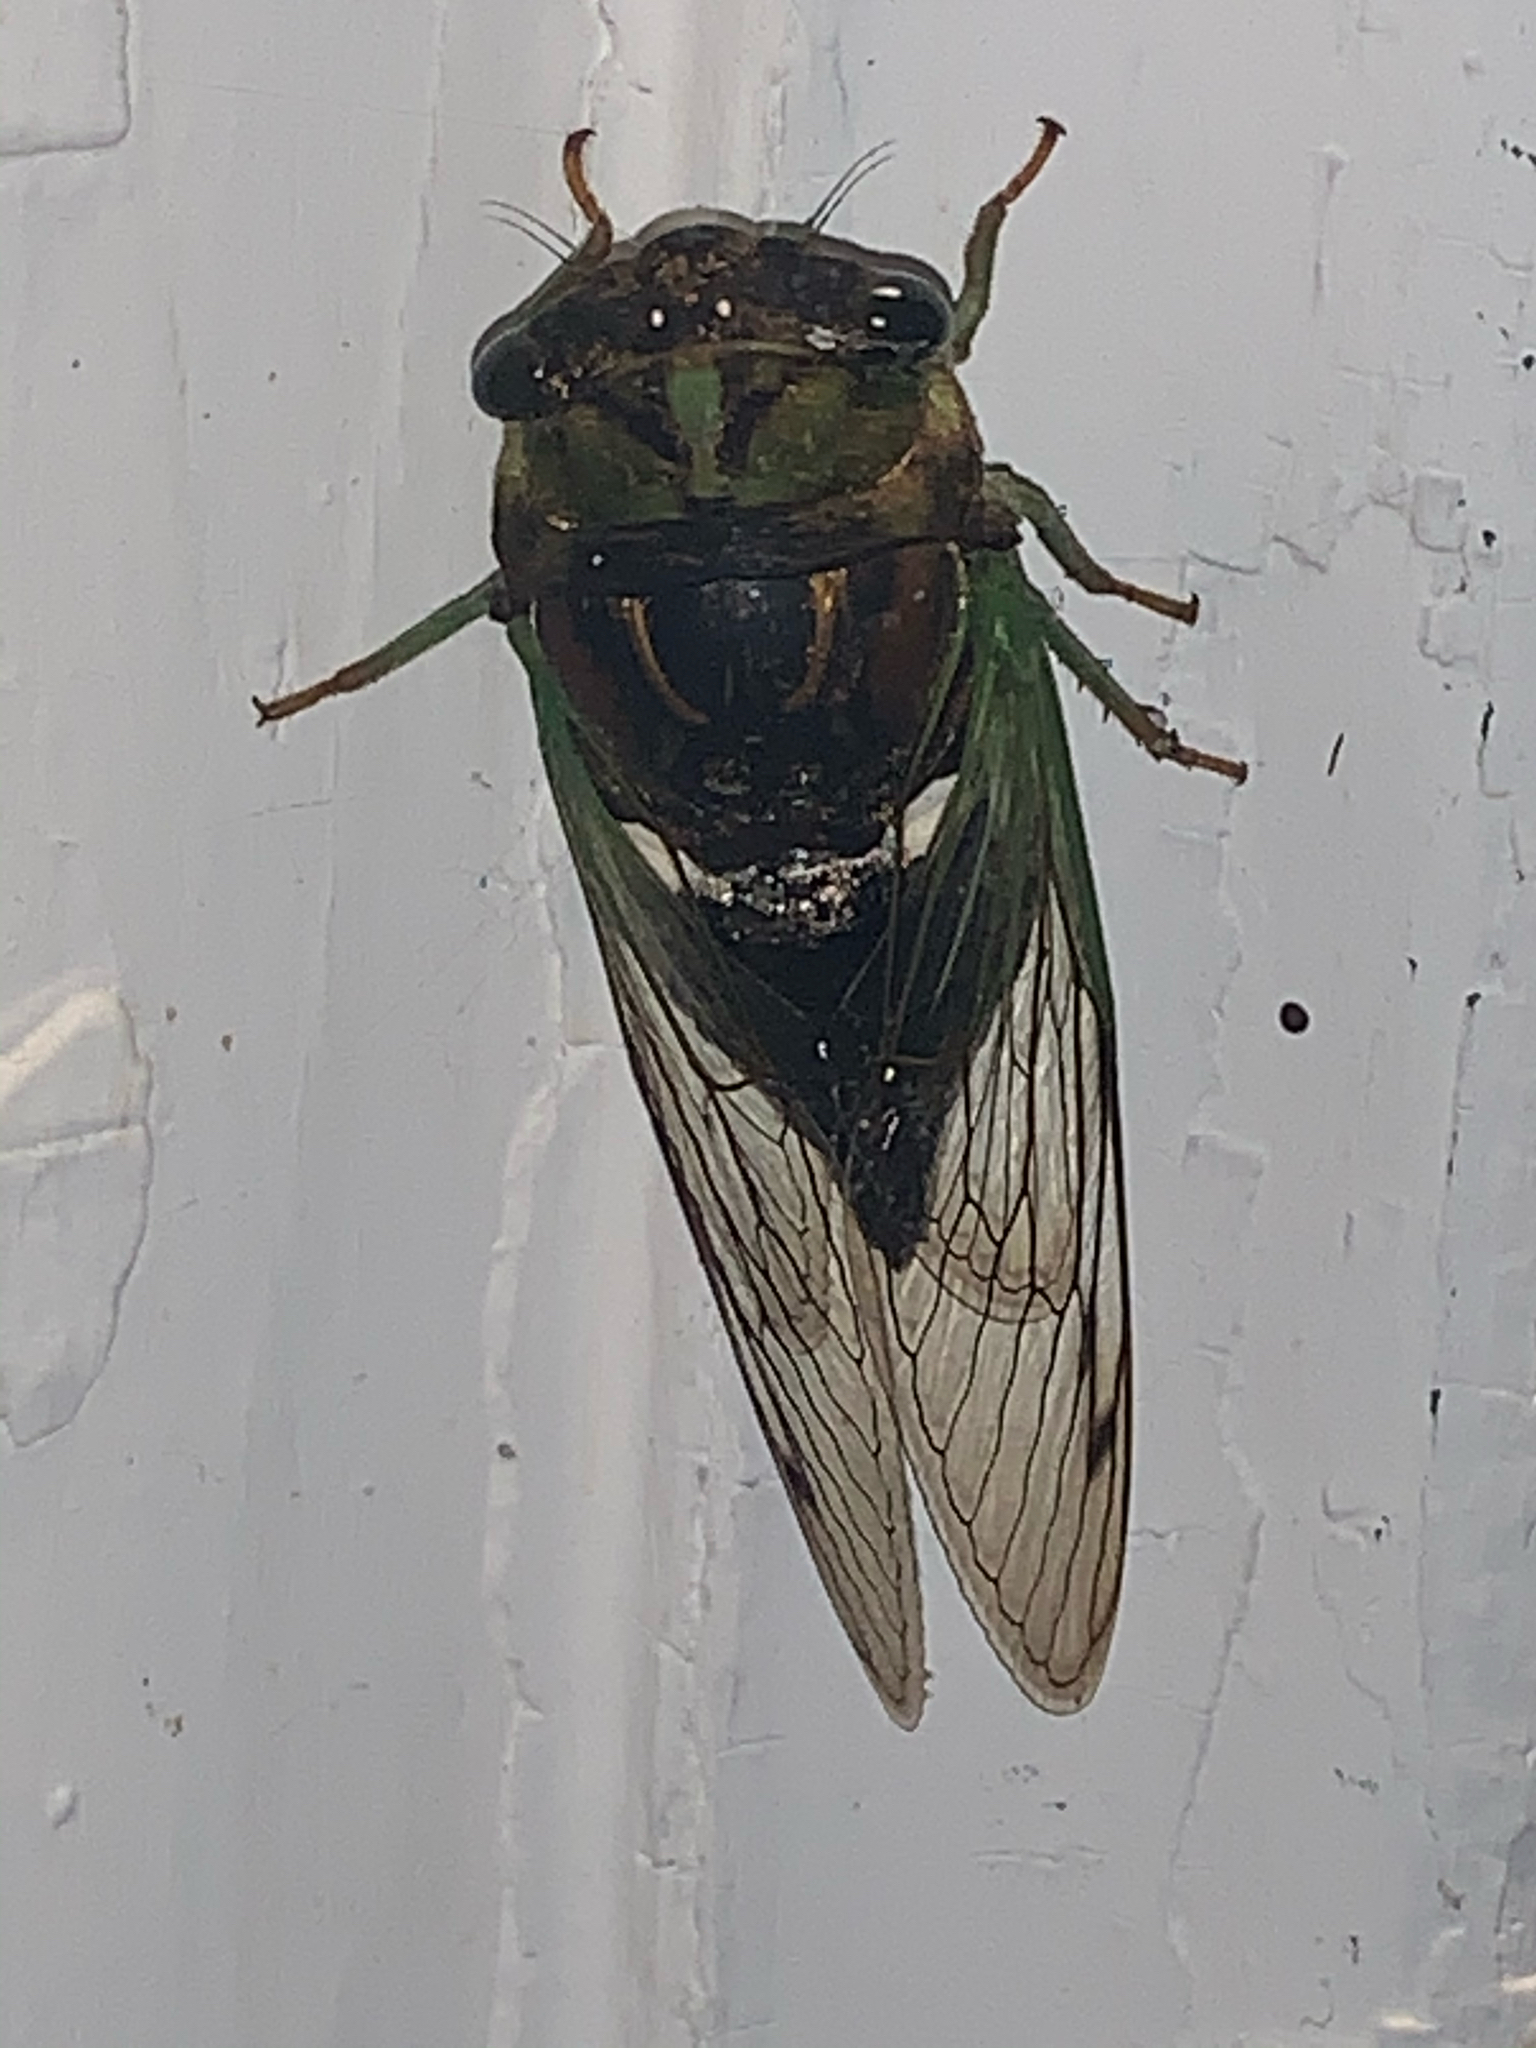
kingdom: Animalia
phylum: Arthropoda
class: Insecta
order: Hemiptera
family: Cicadidae
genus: Neotibicen
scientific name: Neotibicen tibicen
